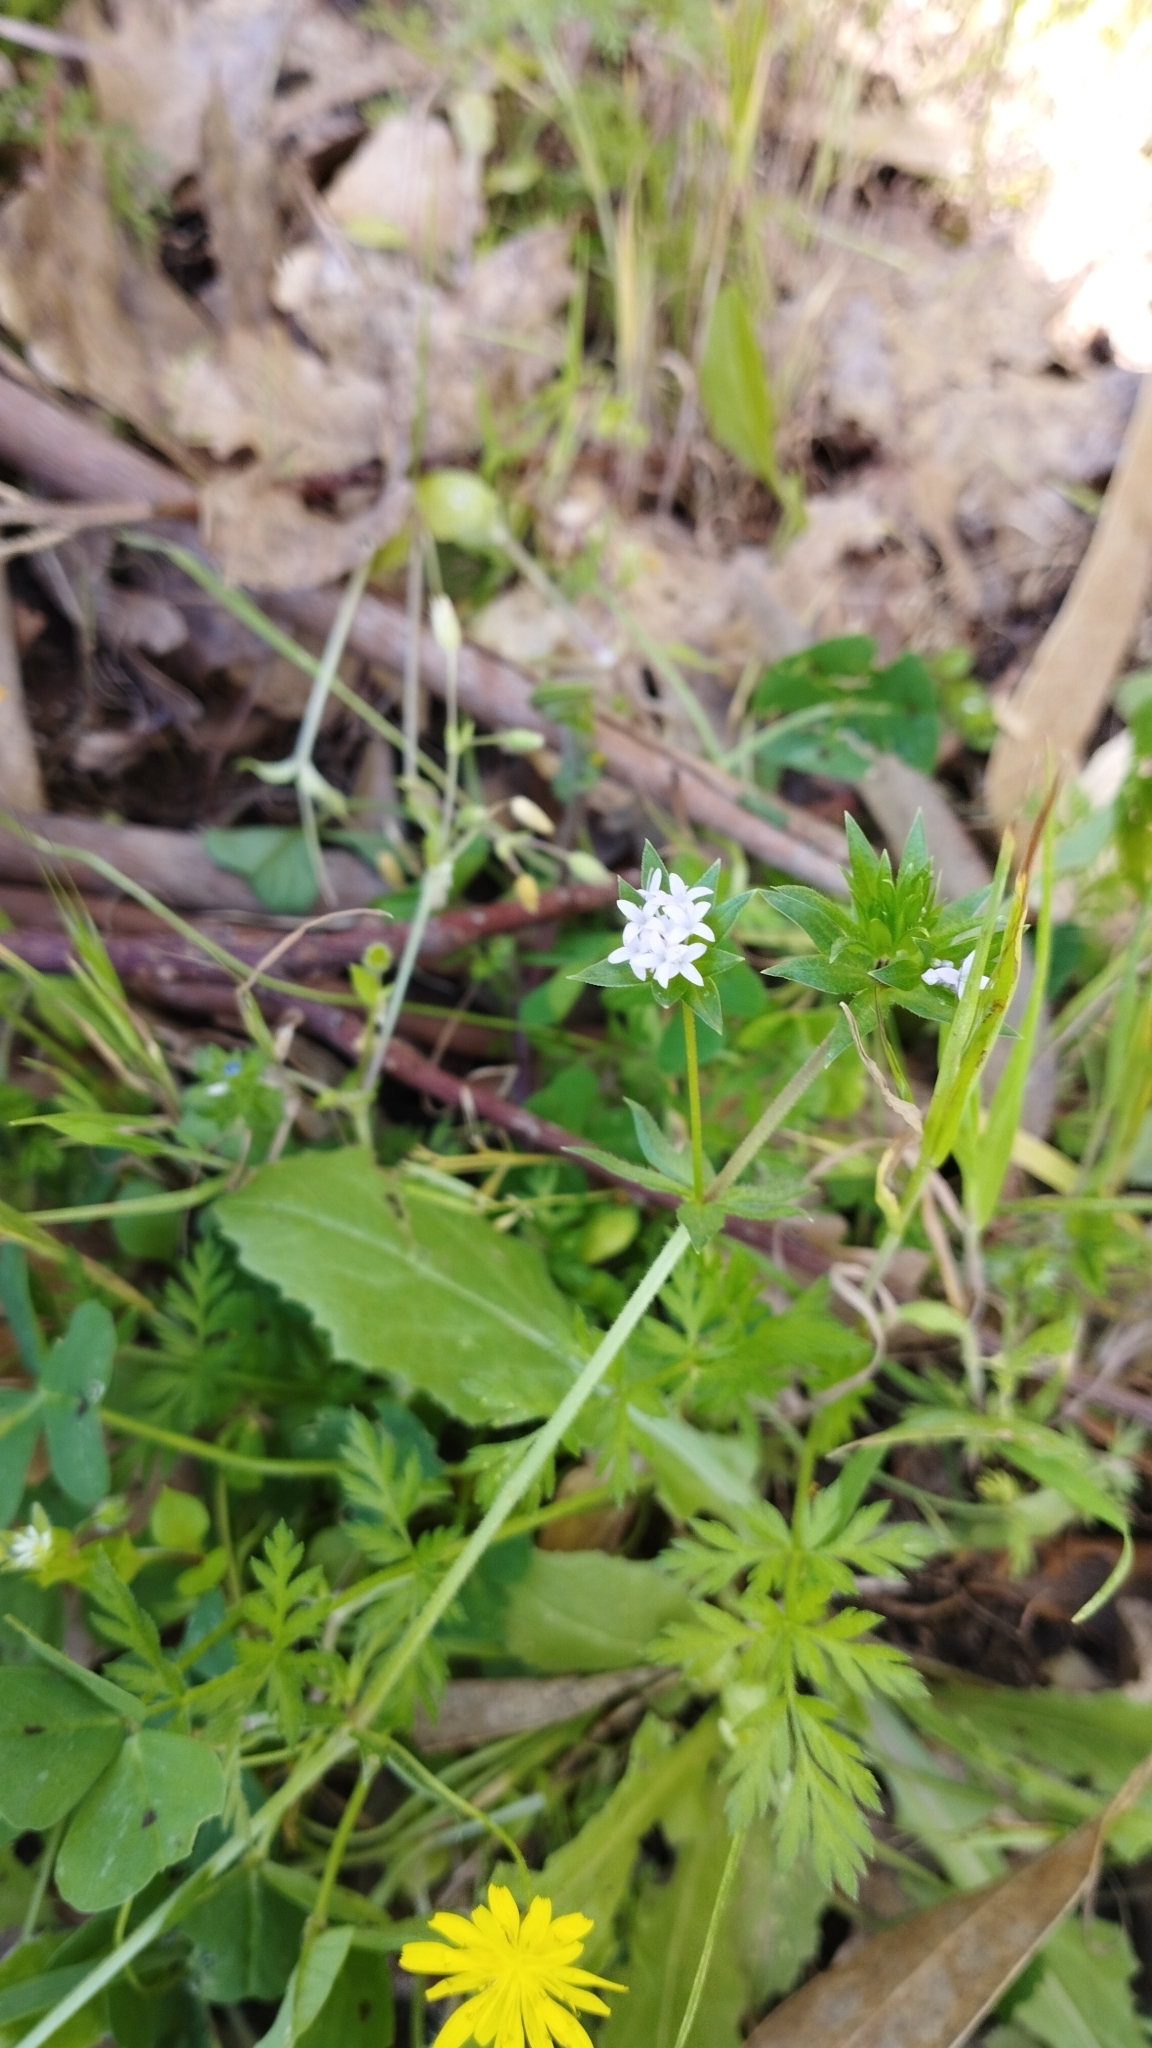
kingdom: Plantae
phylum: Tracheophyta
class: Magnoliopsida
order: Gentianales
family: Rubiaceae
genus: Sherardia
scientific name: Sherardia arvensis
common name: Field madder
